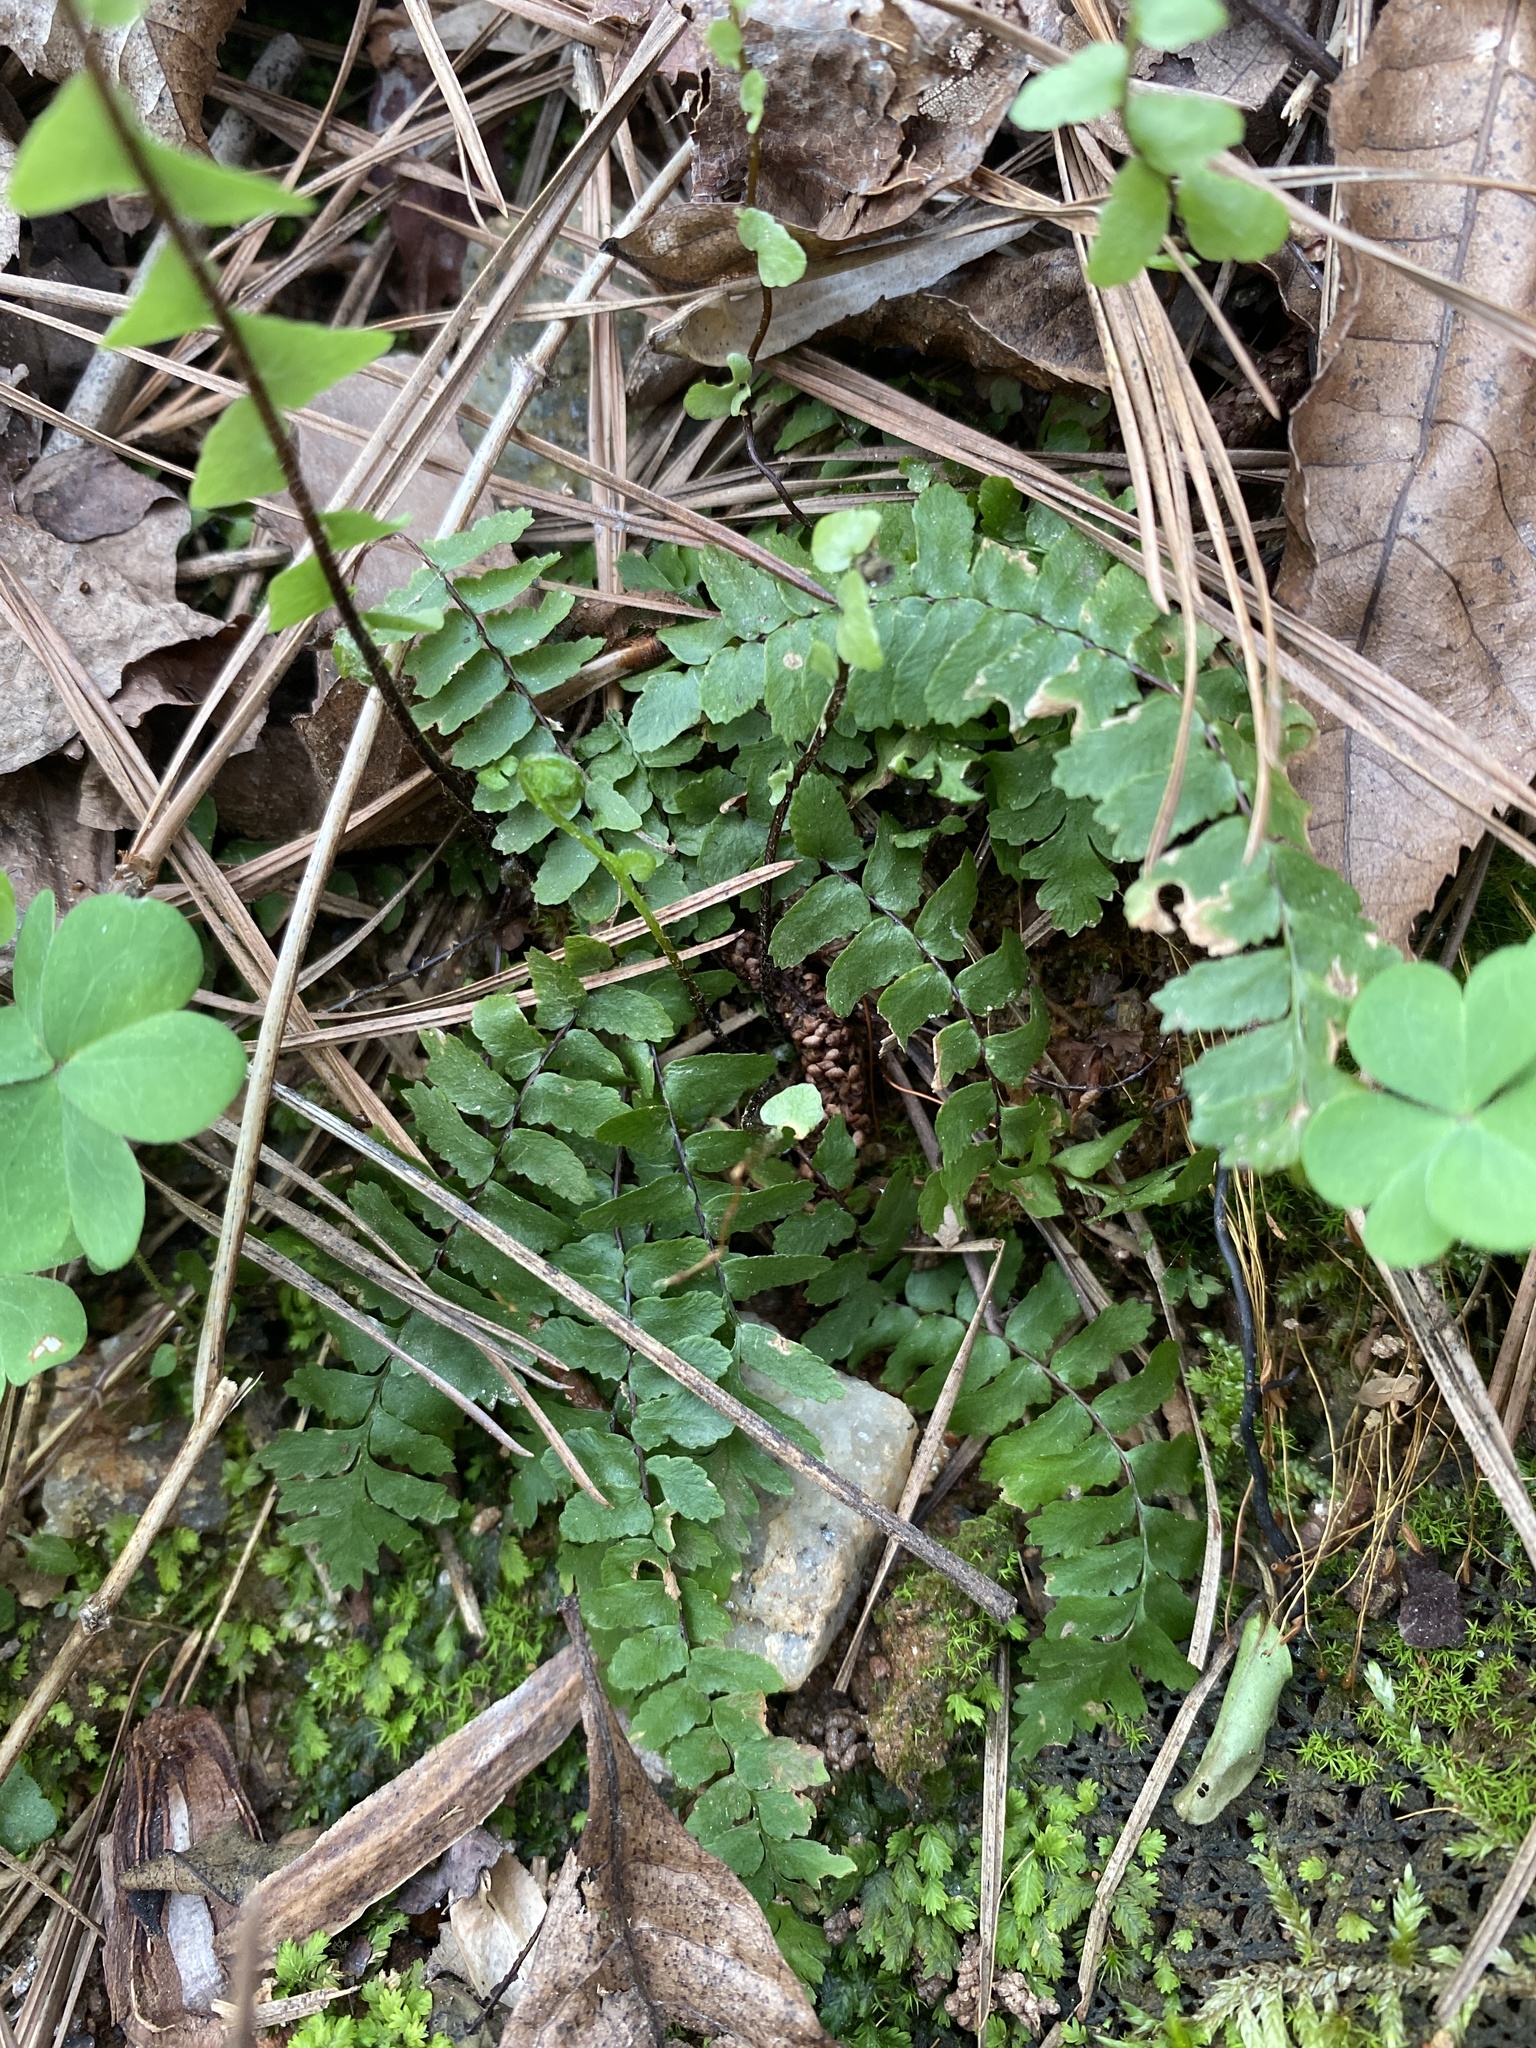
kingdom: Plantae
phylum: Tracheophyta
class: Polypodiopsida
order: Polypodiales
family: Aspleniaceae
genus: Asplenium
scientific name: Asplenium platyneuron
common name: Ebony spleenwort
